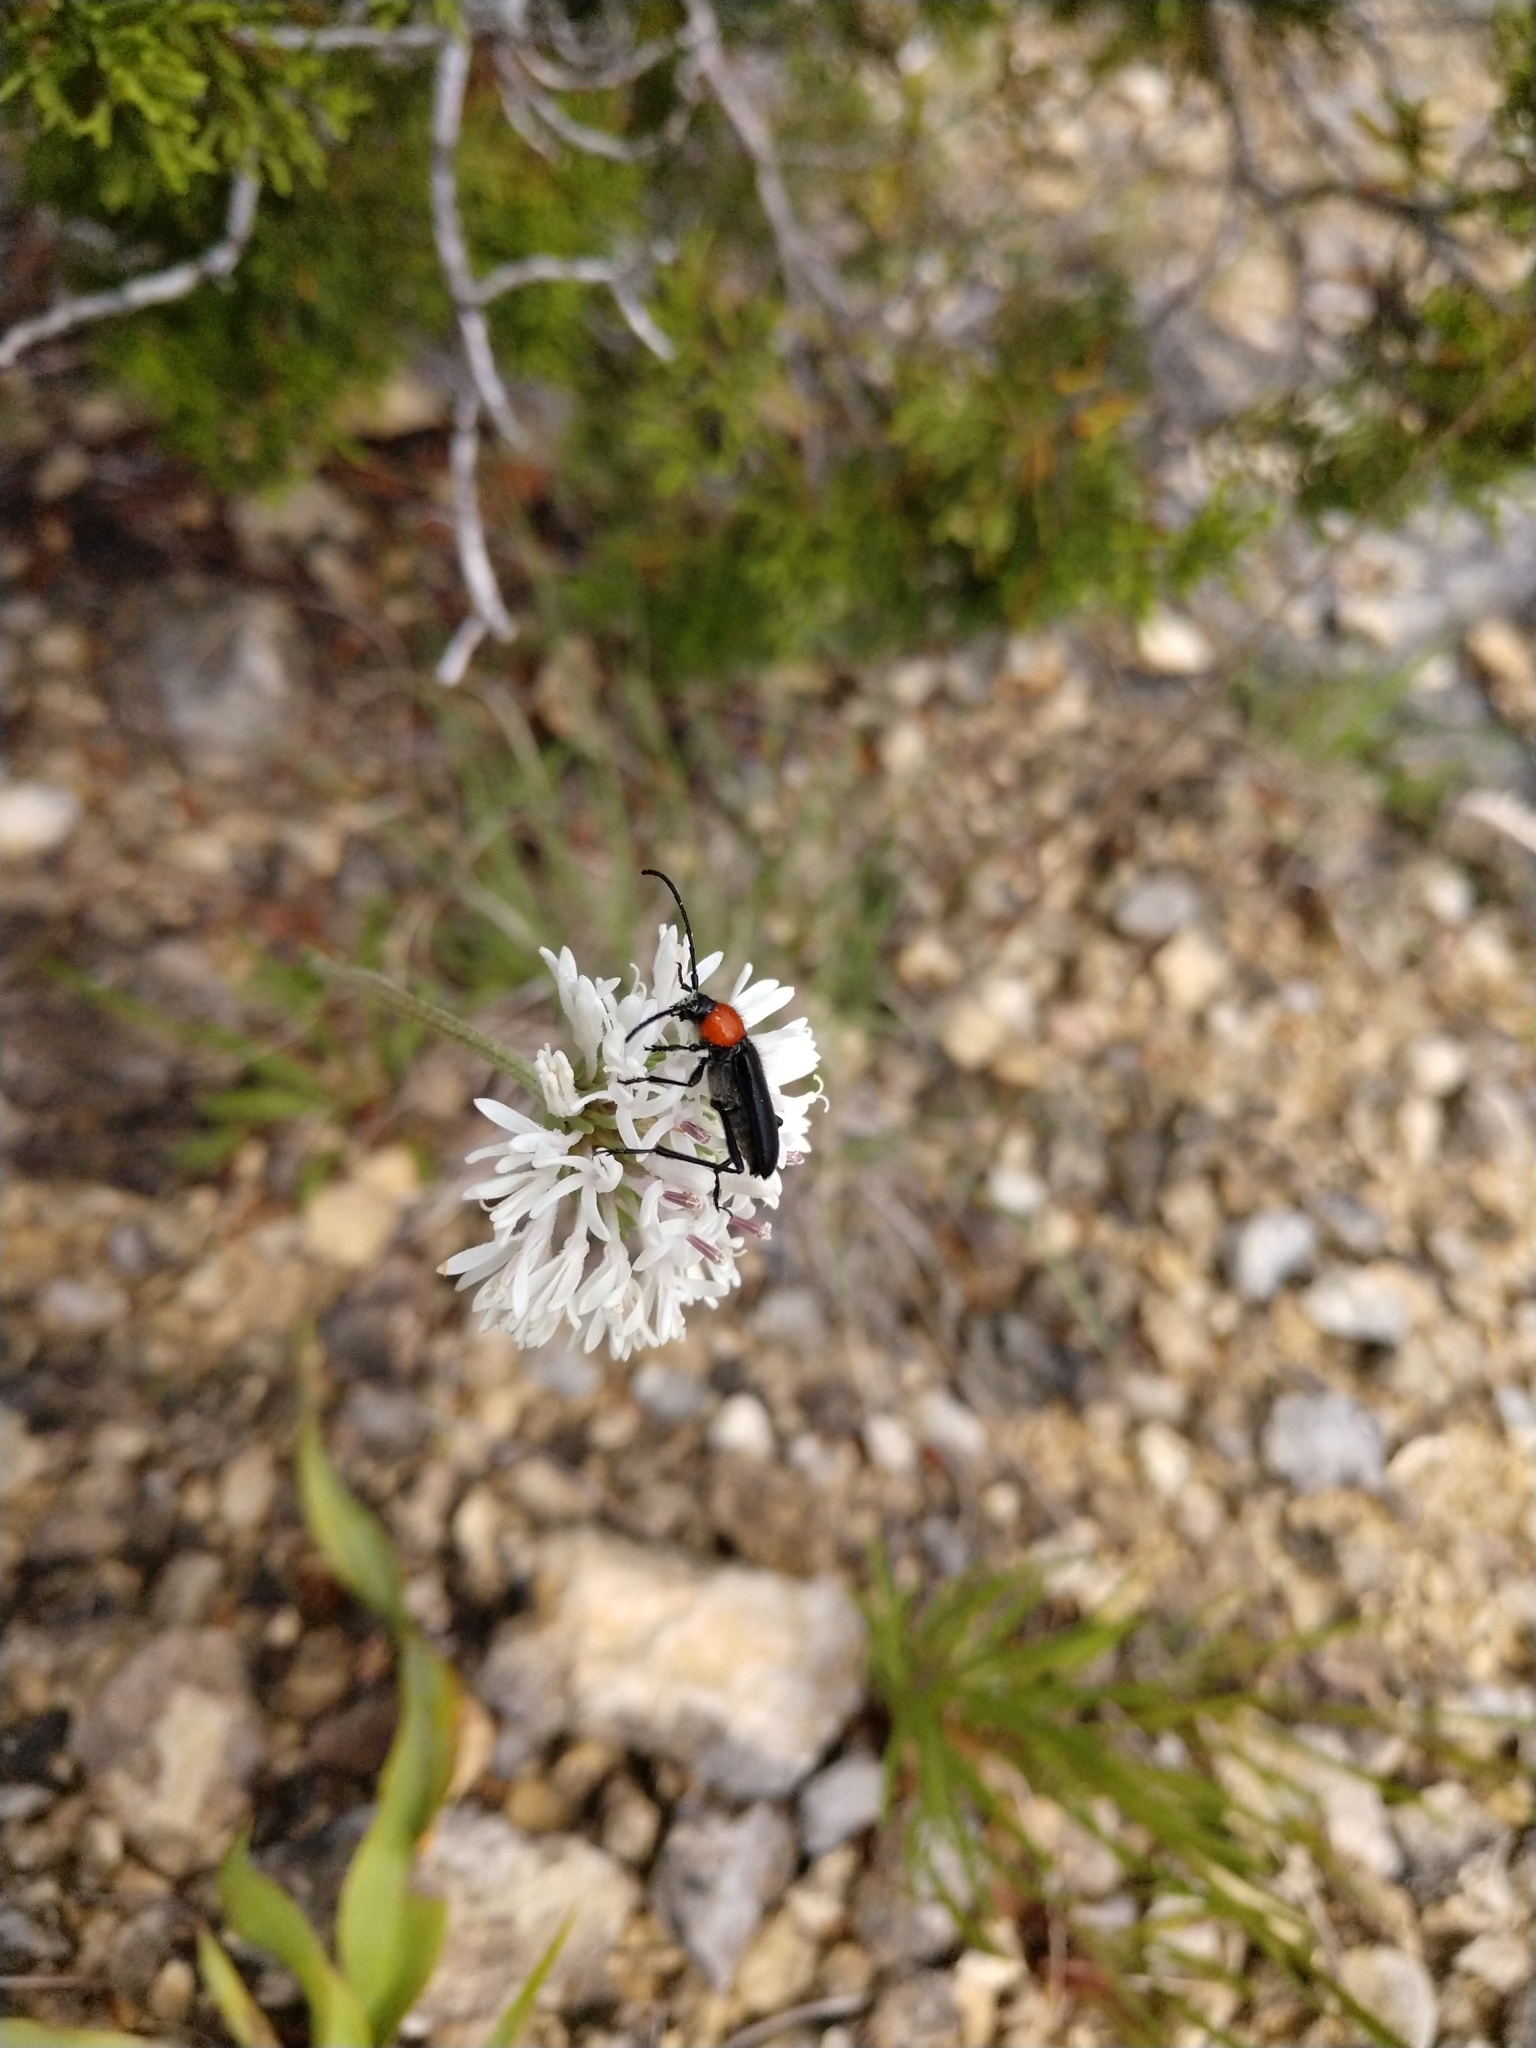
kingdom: Animalia
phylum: Arthropoda
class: Insecta
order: Coleoptera
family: Cerambycidae
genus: Batyle
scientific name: Batyle ignicollis
